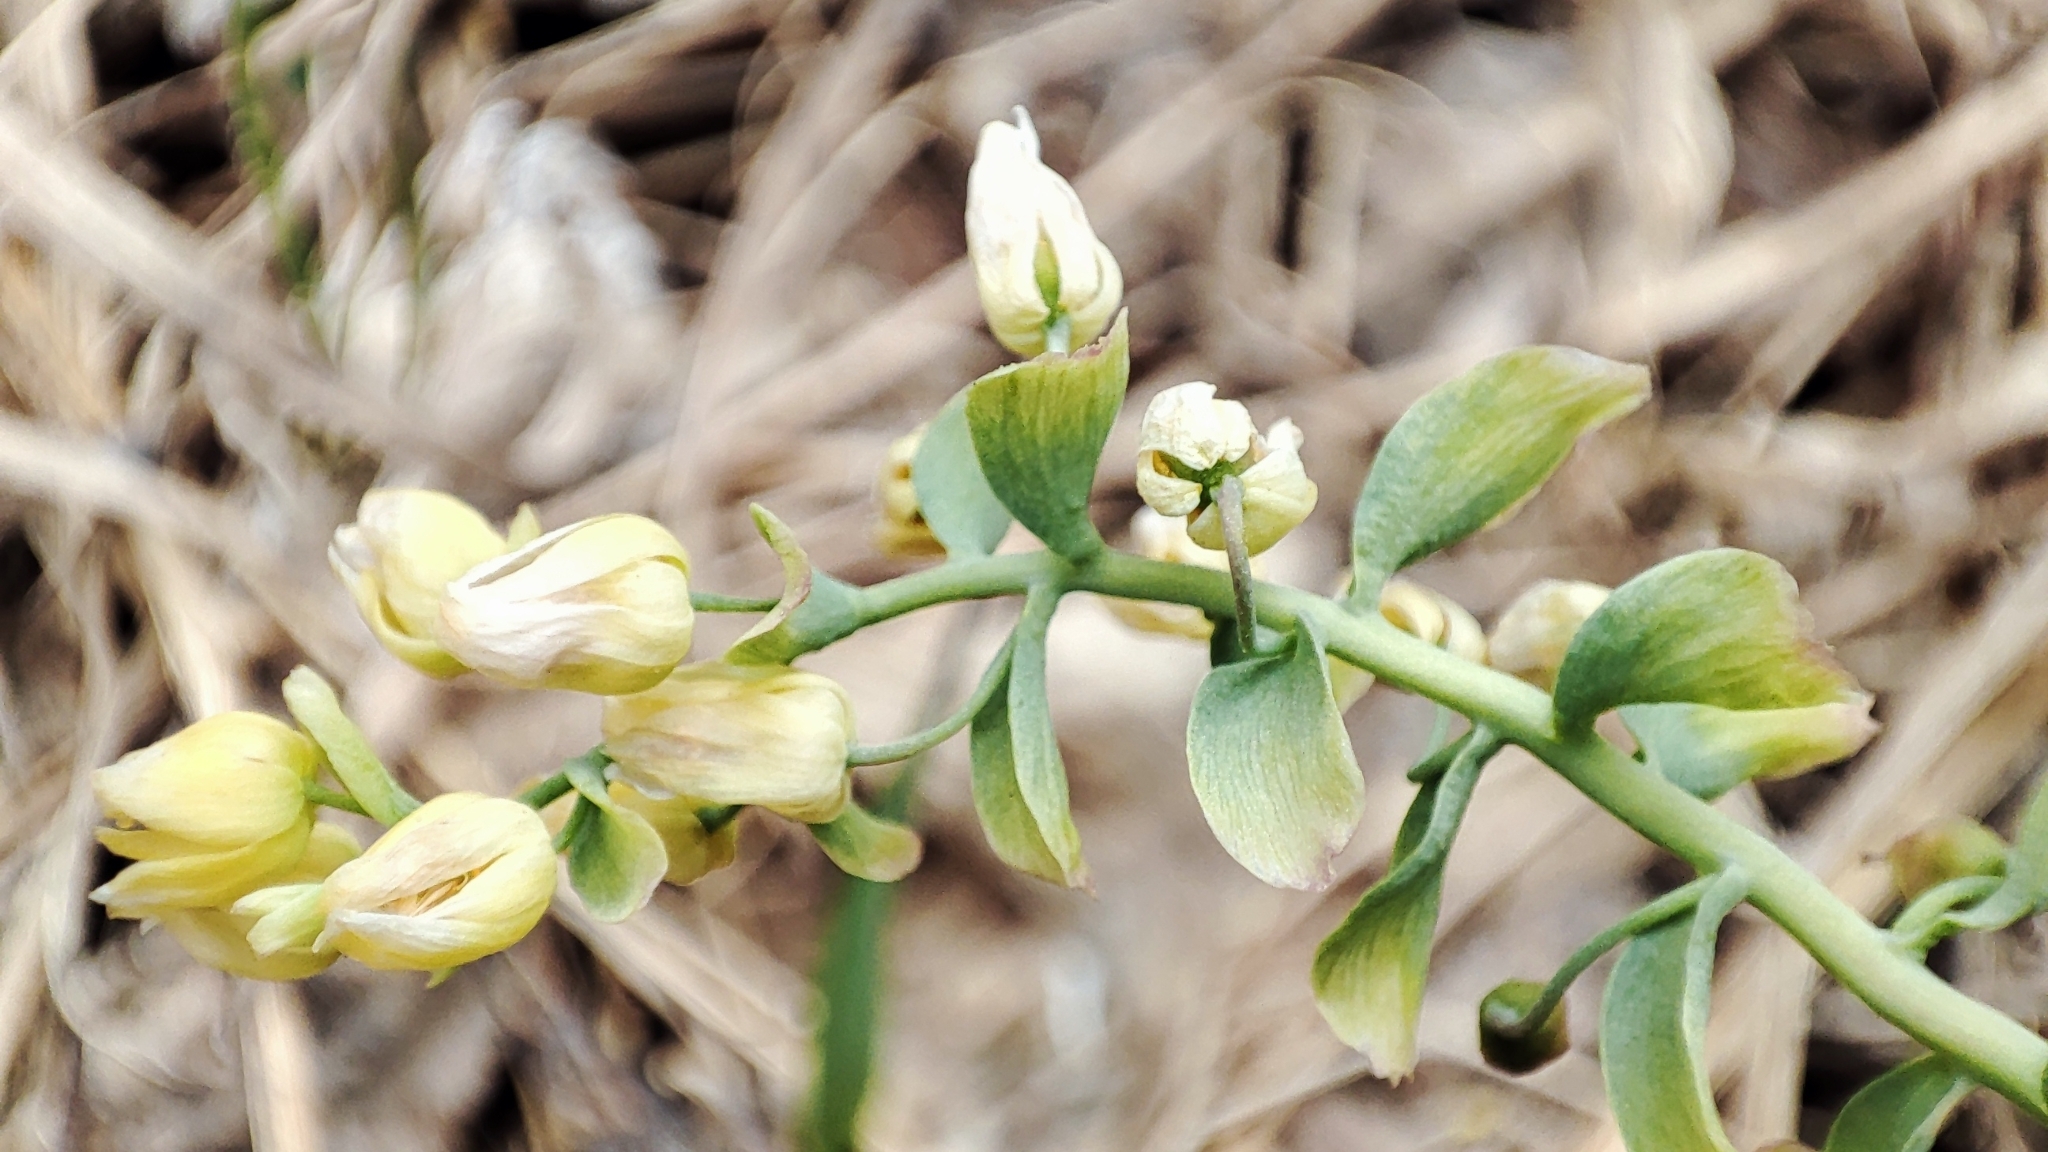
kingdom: Plantae
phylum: Tracheophyta
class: Magnoliopsida
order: Ranunculales
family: Berberidaceae
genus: Gymnospermium
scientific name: Gymnospermium altaicum
